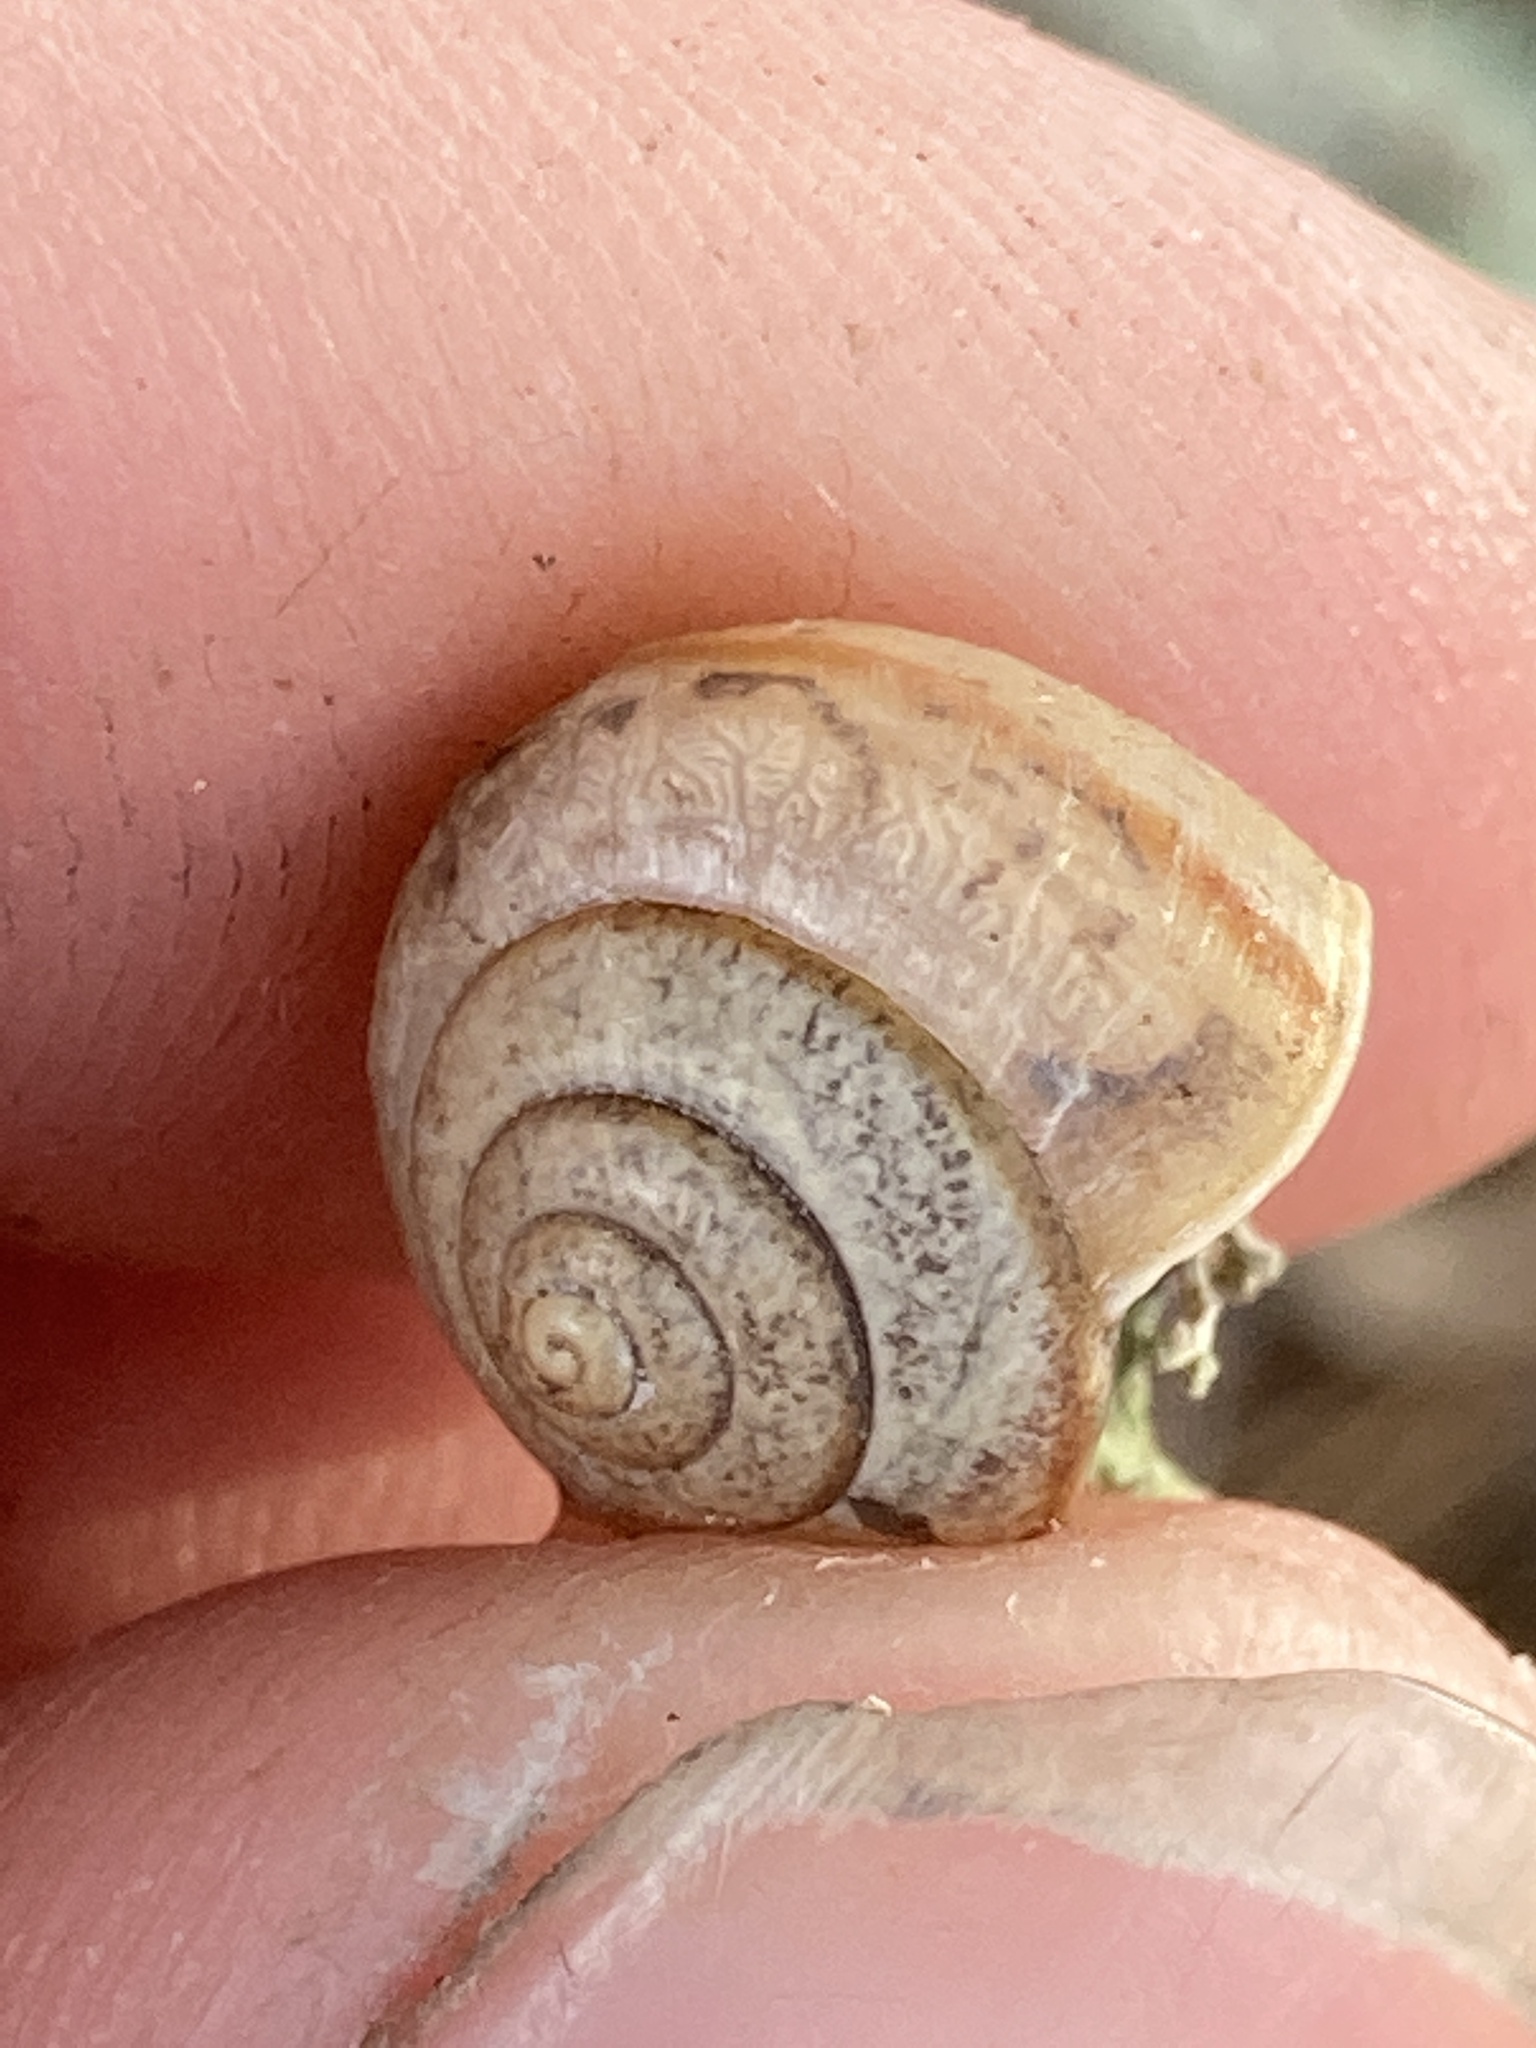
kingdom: Animalia
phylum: Mollusca
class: Gastropoda
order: Stylommatophora
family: Camaenidae
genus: Bradybaena
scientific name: Bradybaena similaris
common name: Asian trampsnail
